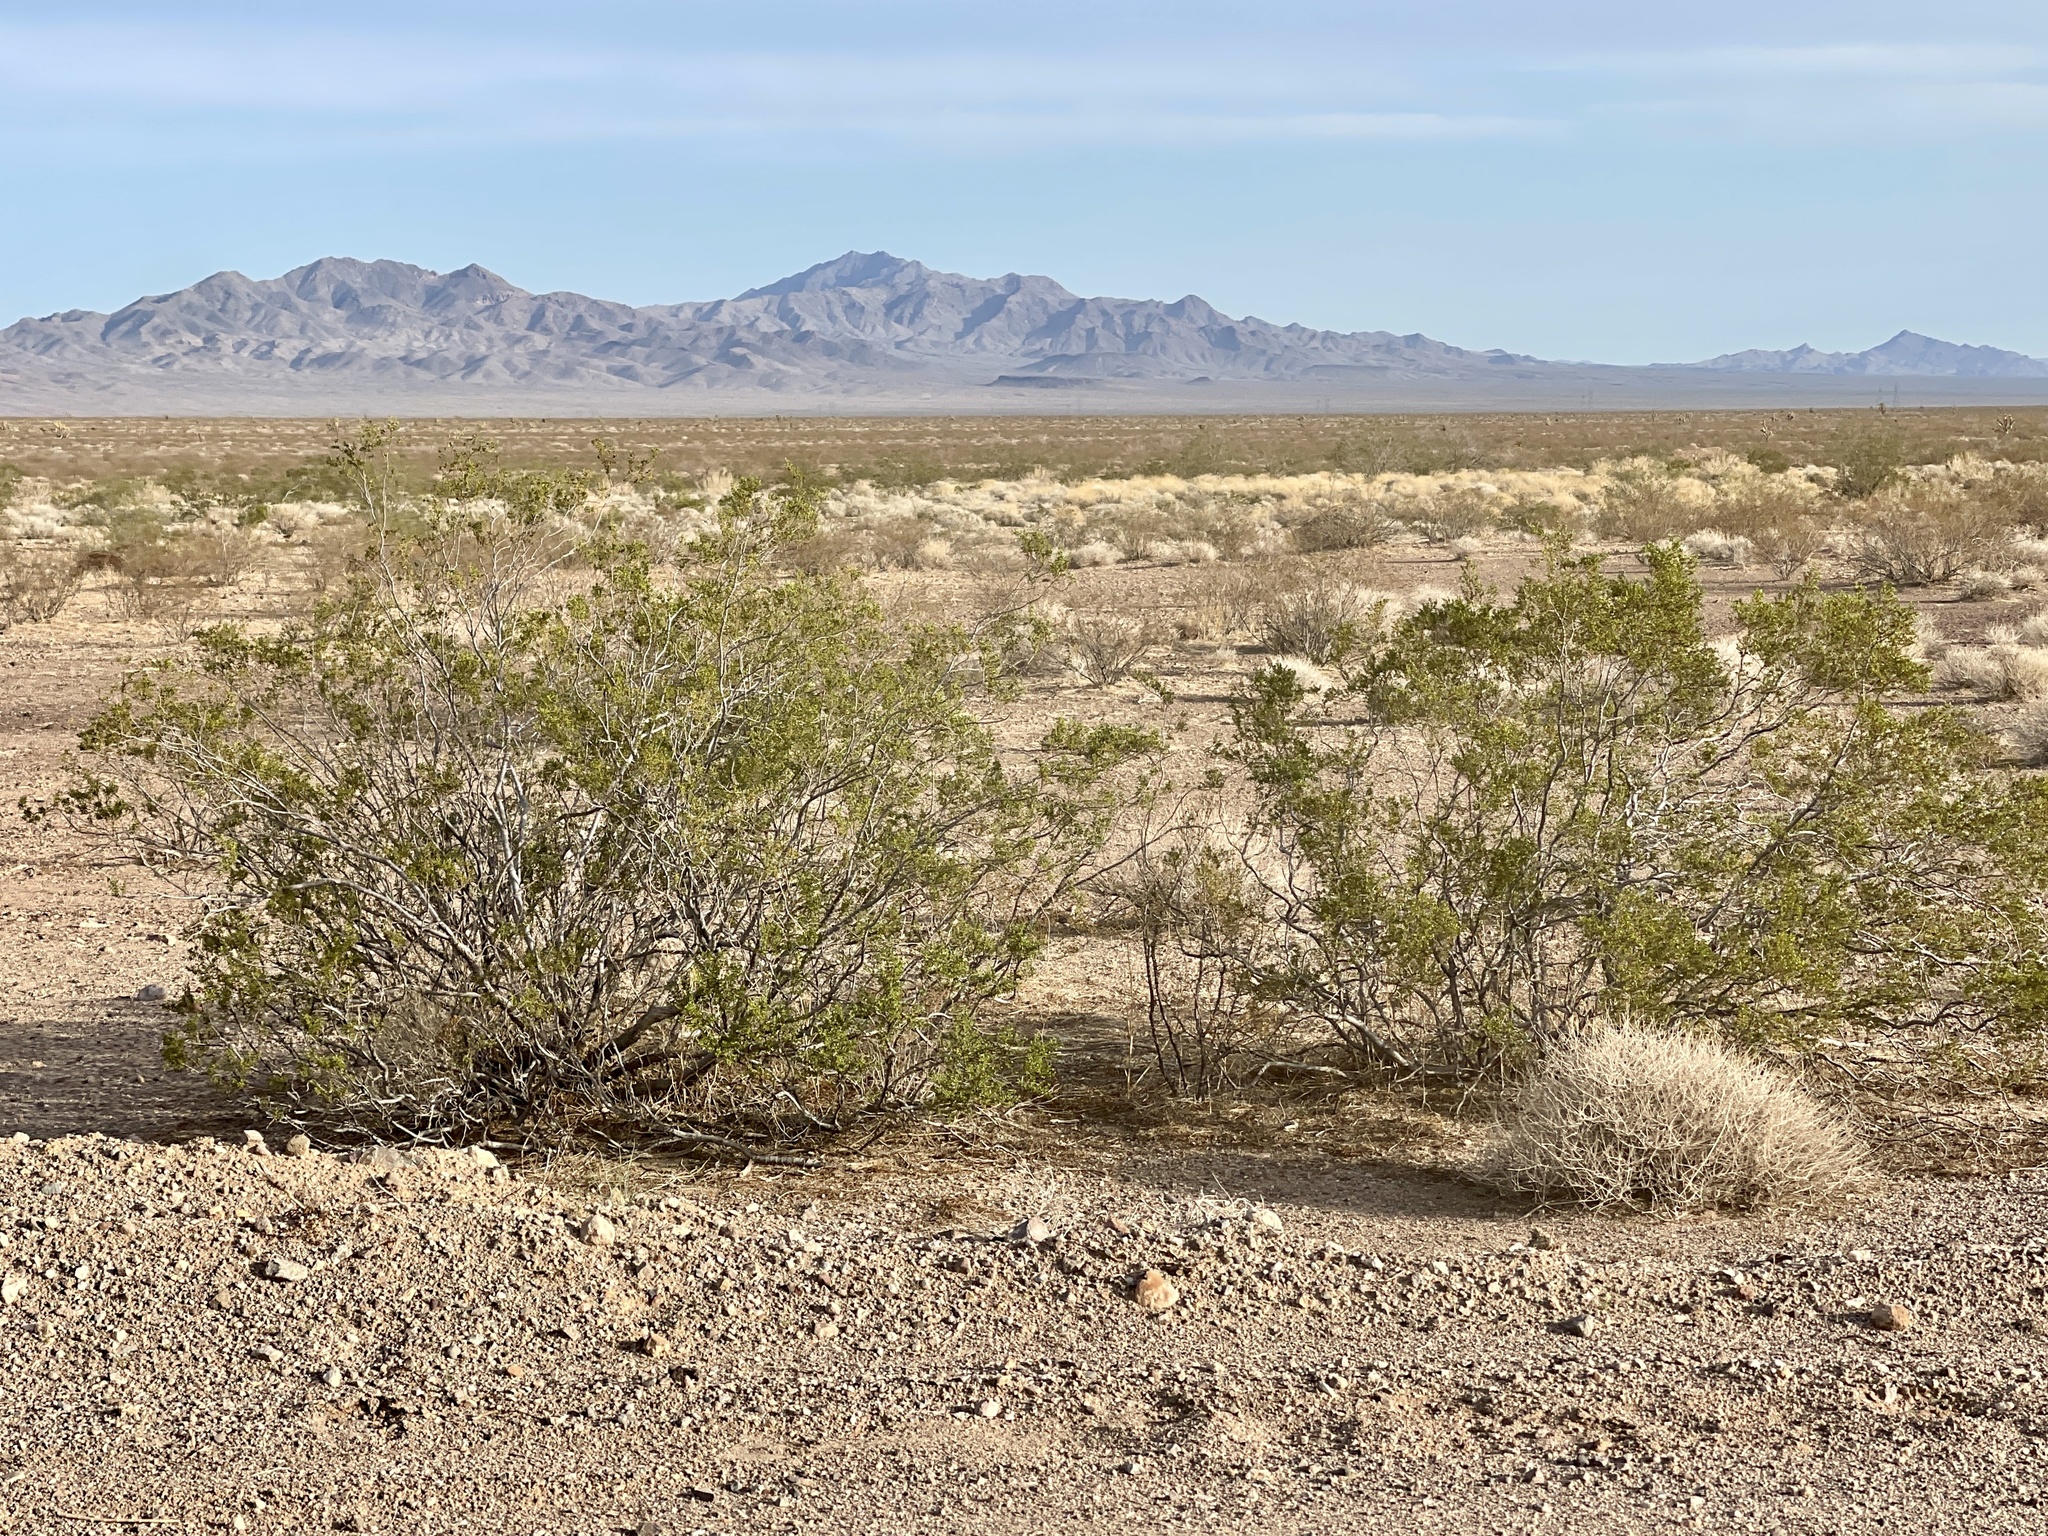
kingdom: Plantae
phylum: Tracheophyta
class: Magnoliopsida
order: Zygophyllales
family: Zygophyllaceae
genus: Larrea
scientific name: Larrea tridentata
